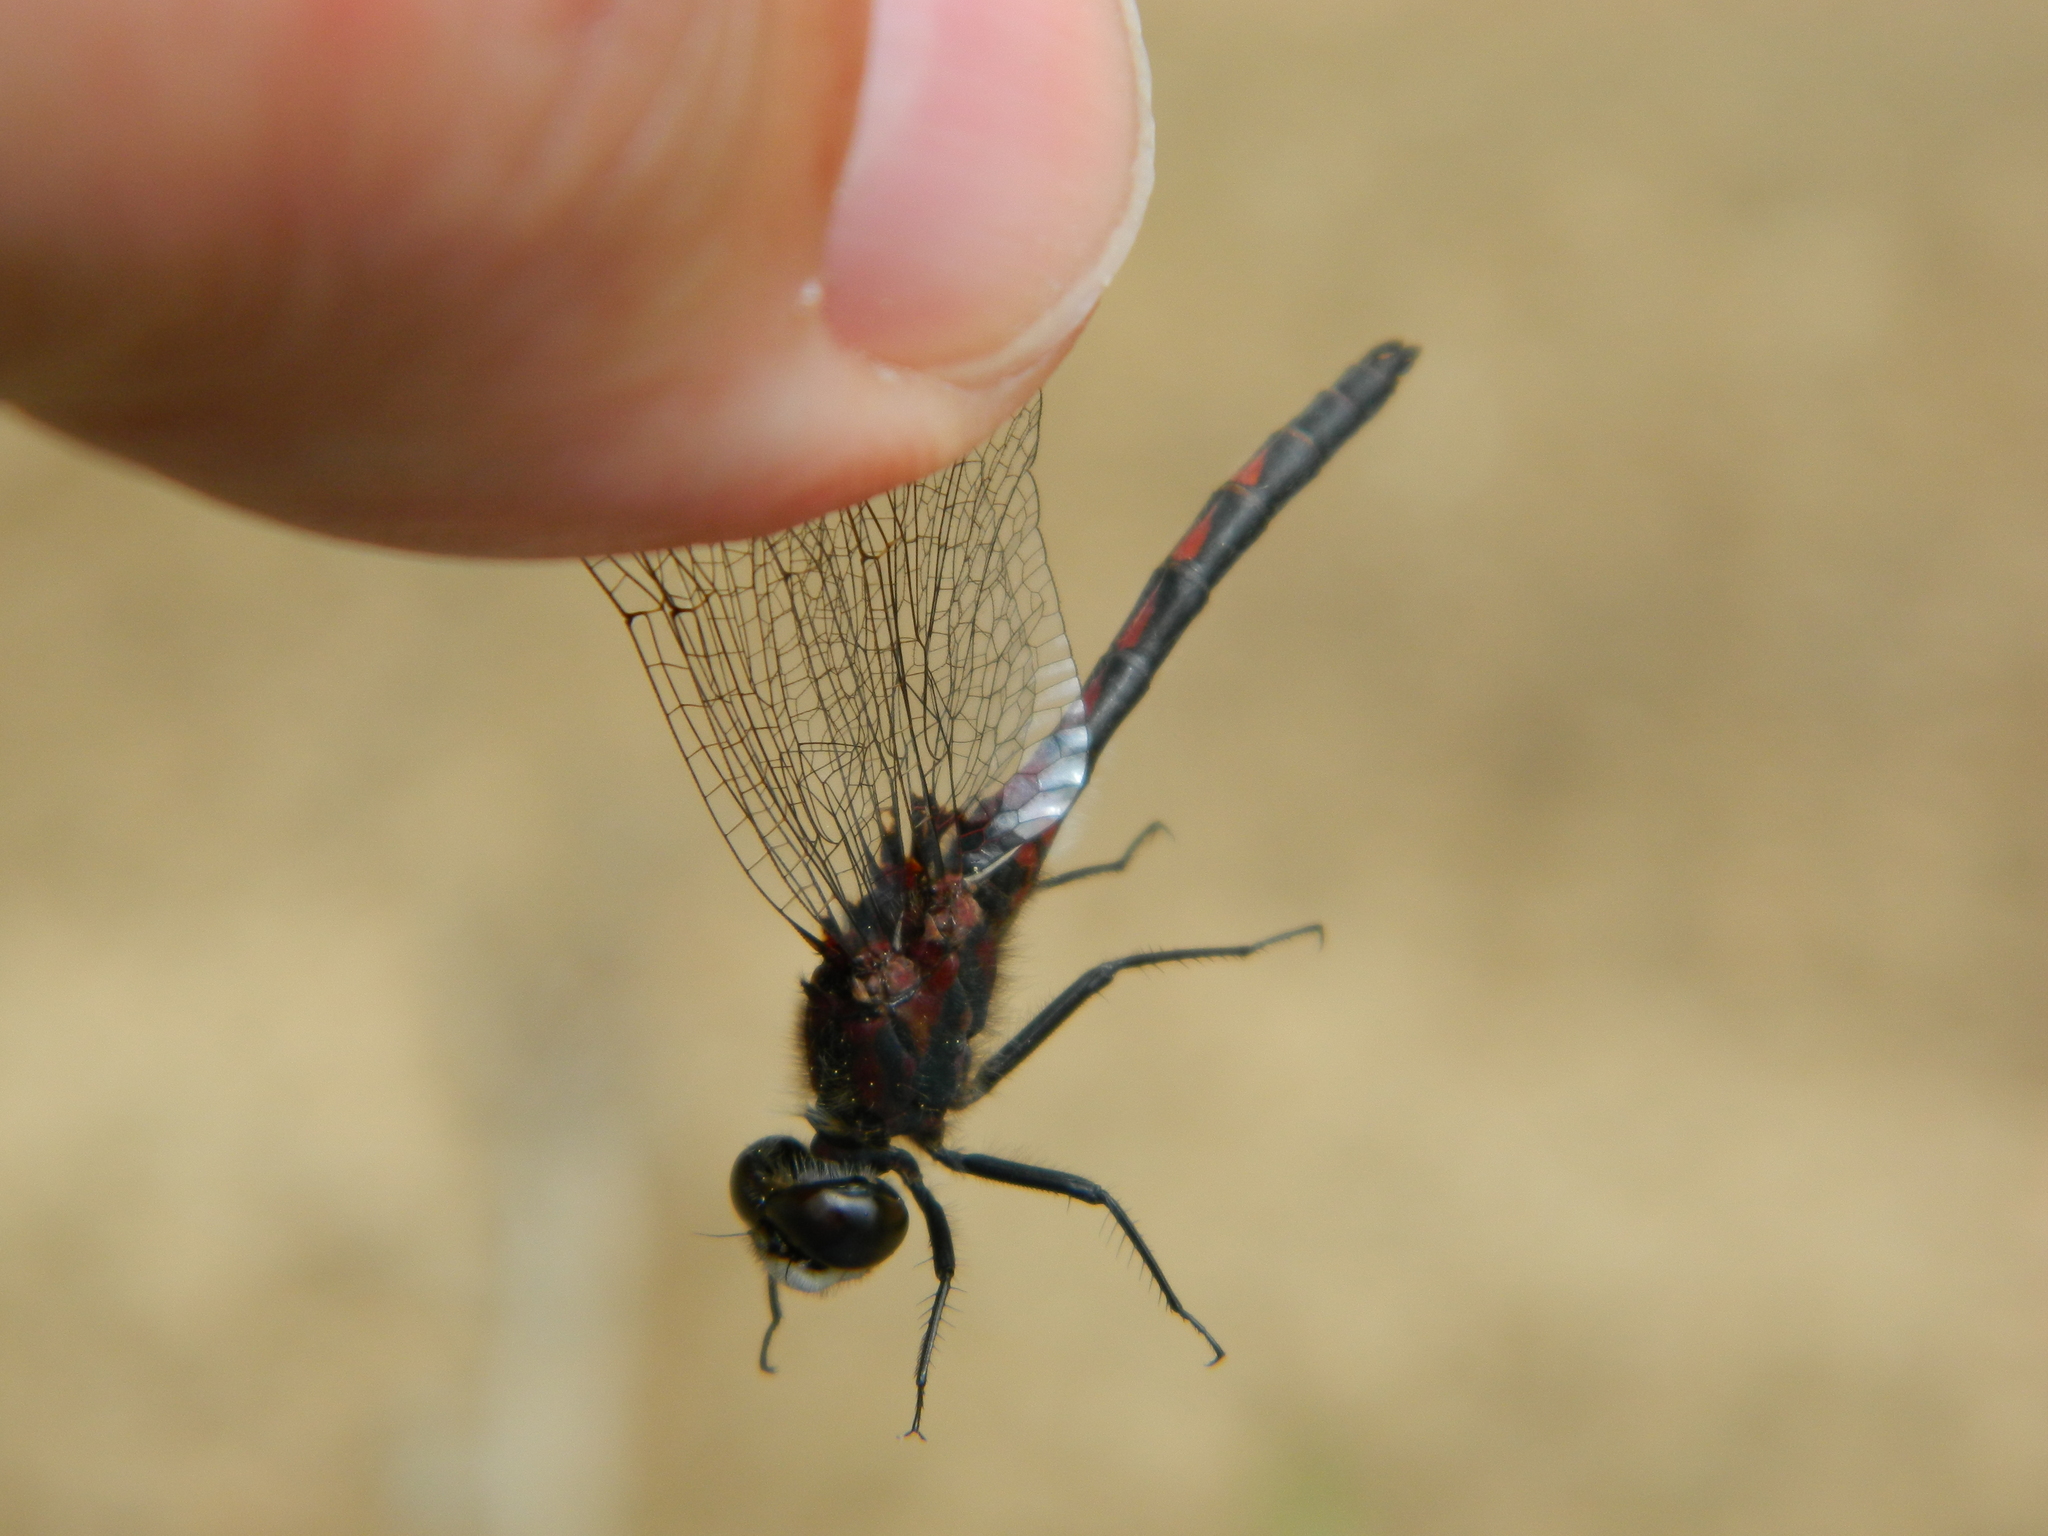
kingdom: Animalia
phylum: Arthropoda
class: Insecta
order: Odonata
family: Libellulidae
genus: Leucorrhinia
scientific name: Leucorrhinia hudsonica
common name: Hudsonian whiteface
